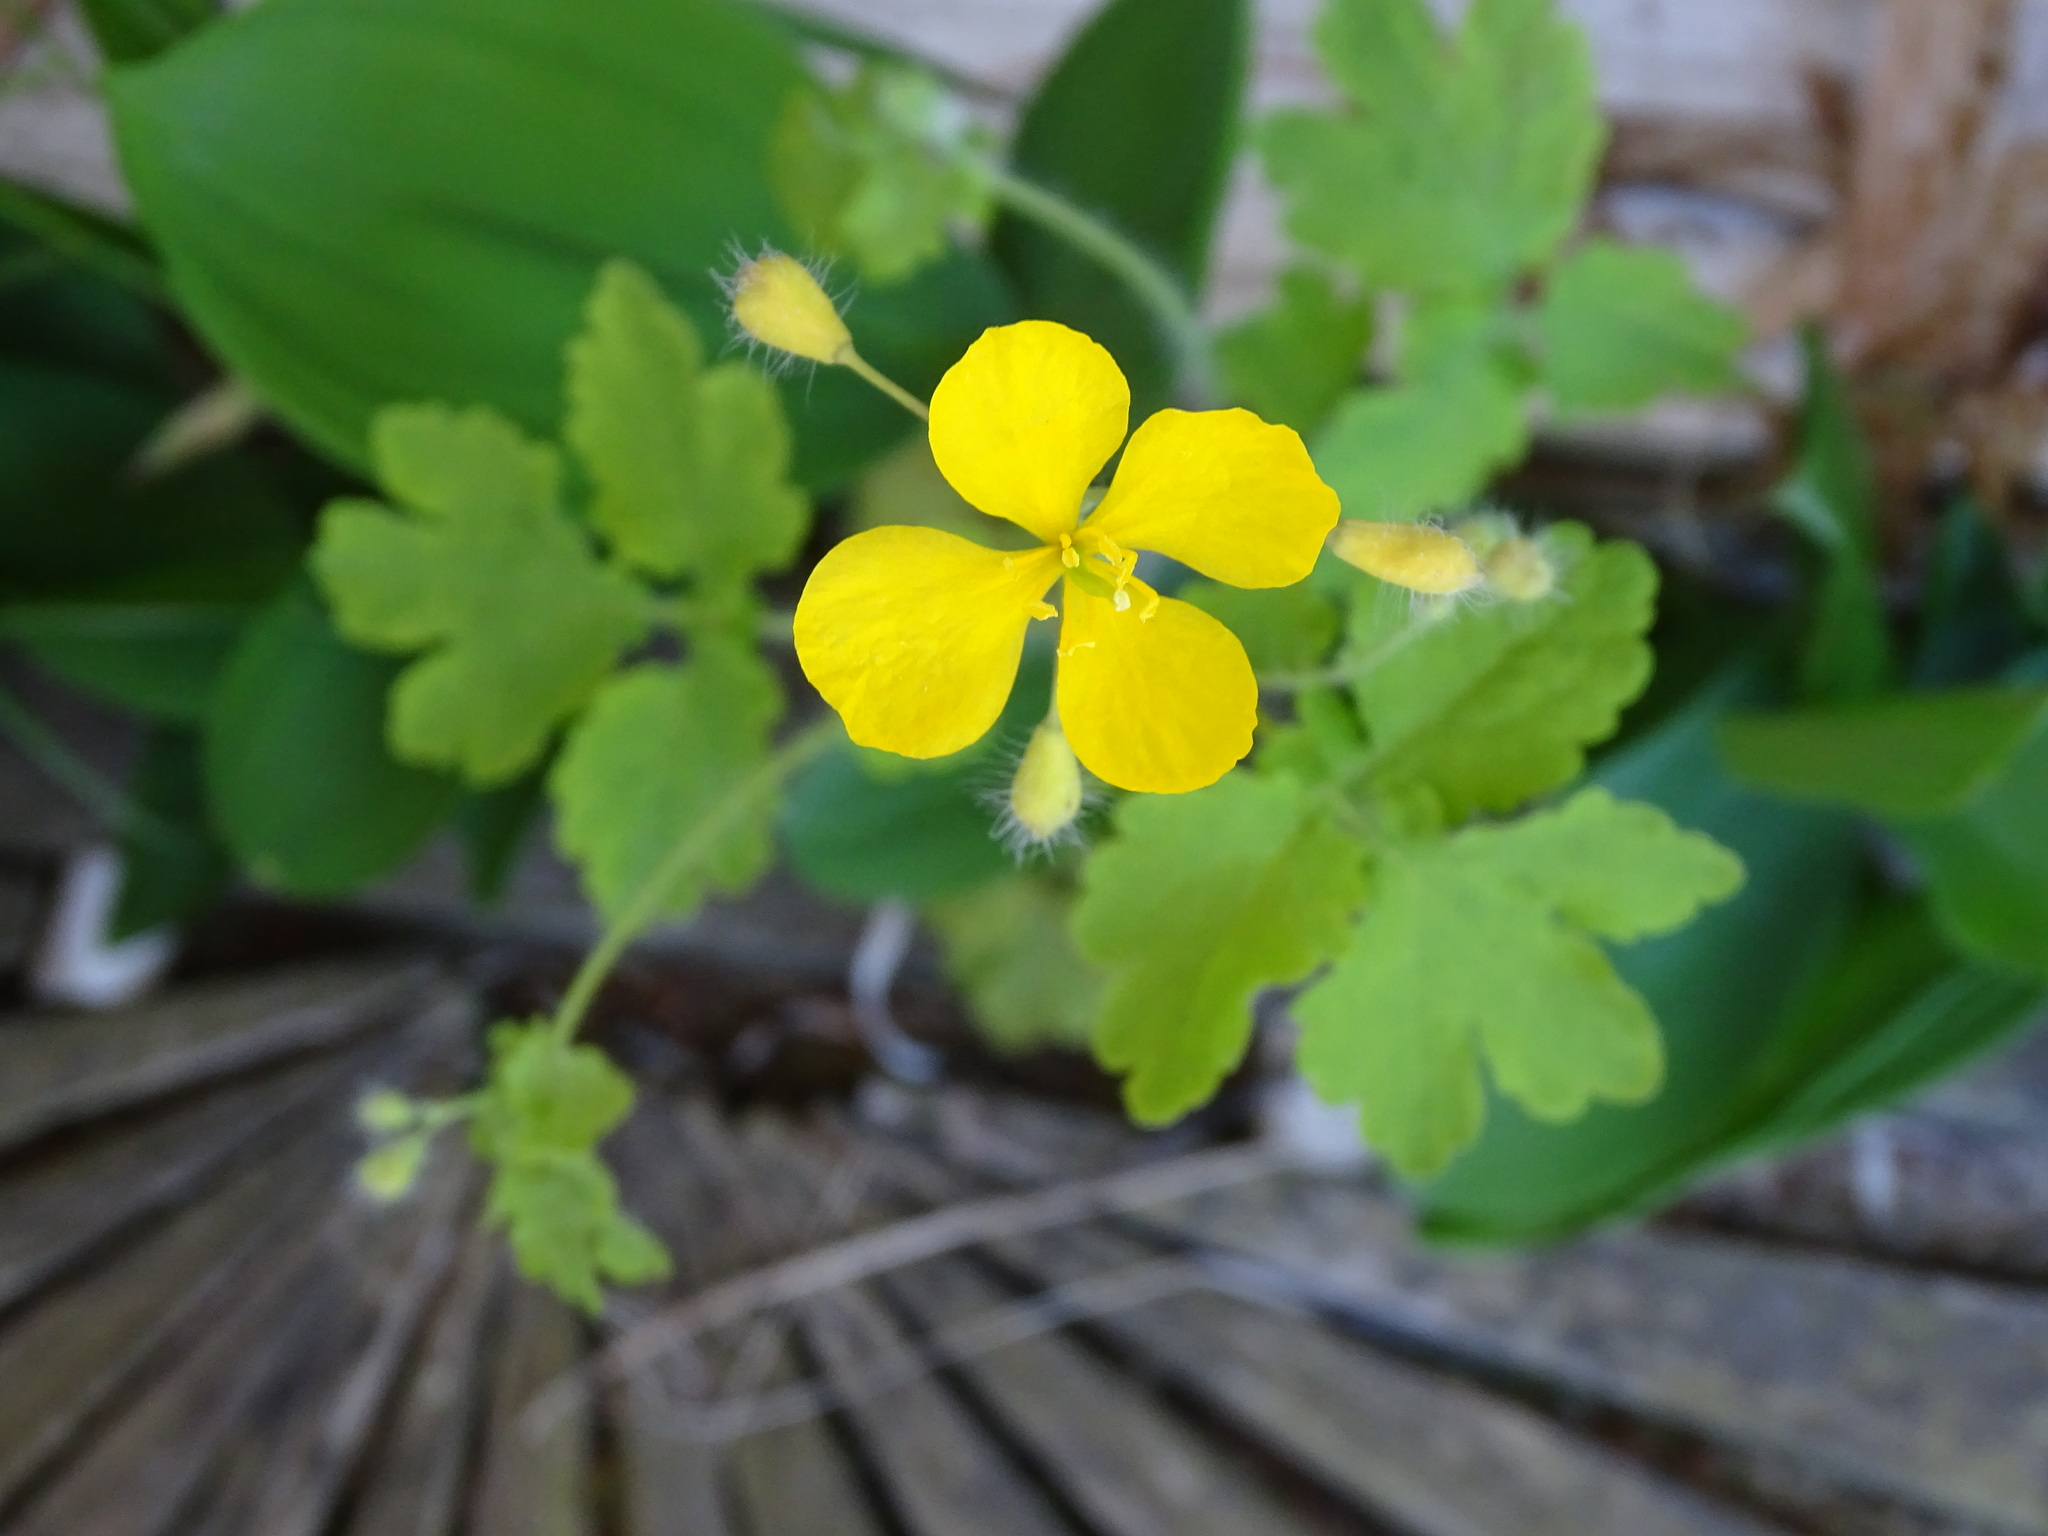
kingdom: Plantae
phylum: Tracheophyta
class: Magnoliopsida
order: Ranunculales
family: Papaveraceae
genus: Chelidonium
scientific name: Chelidonium majus
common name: Greater celandine
